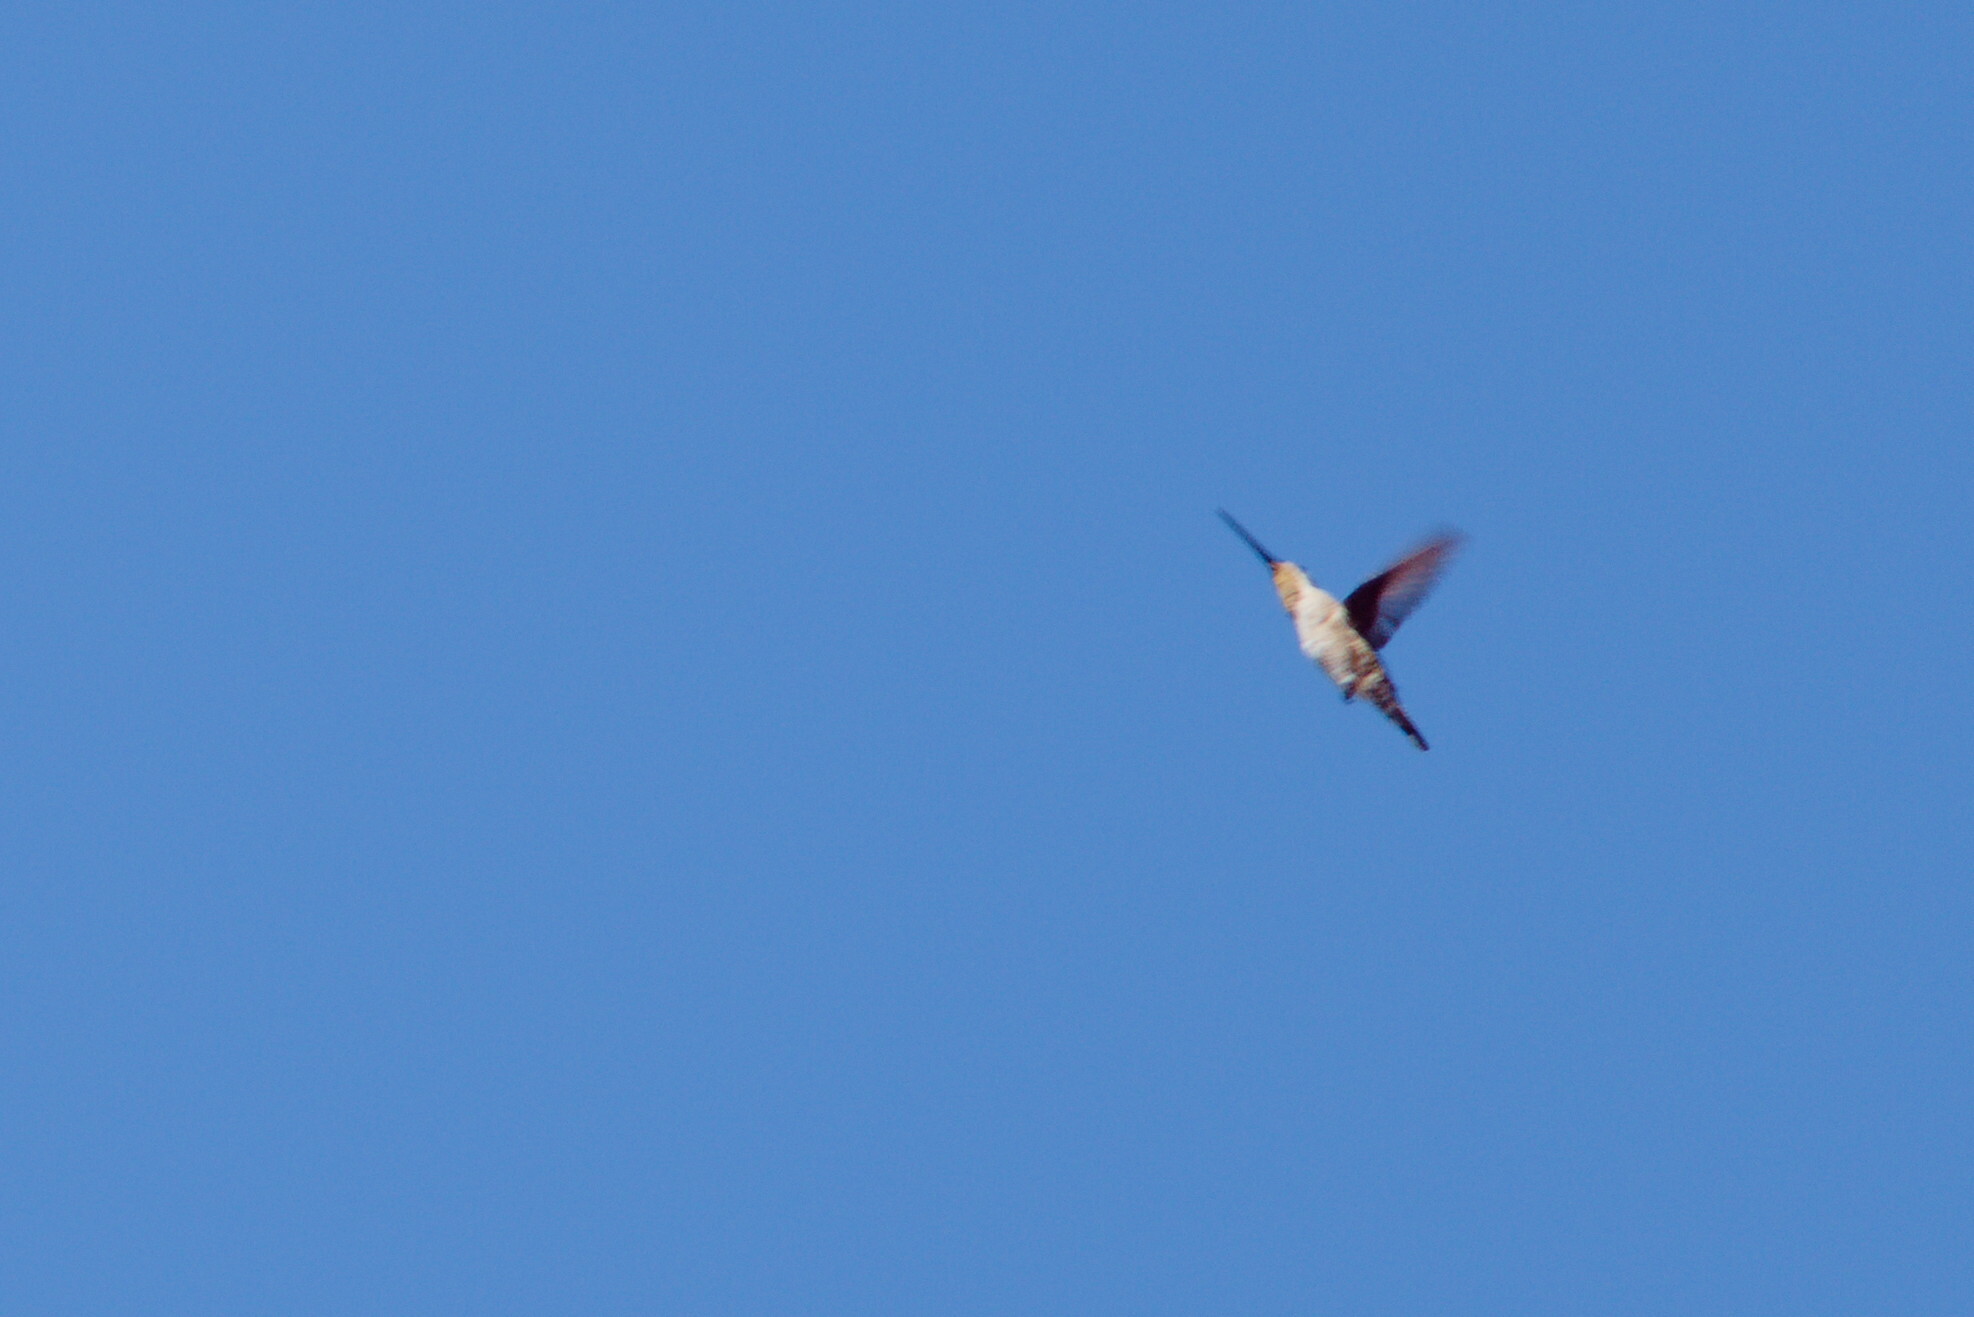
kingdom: Animalia
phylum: Chordata
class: Aves
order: Apodiformes
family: Trochilidae
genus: Heliomaster
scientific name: Heliomaster constantii
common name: Plain-capped starthroat
